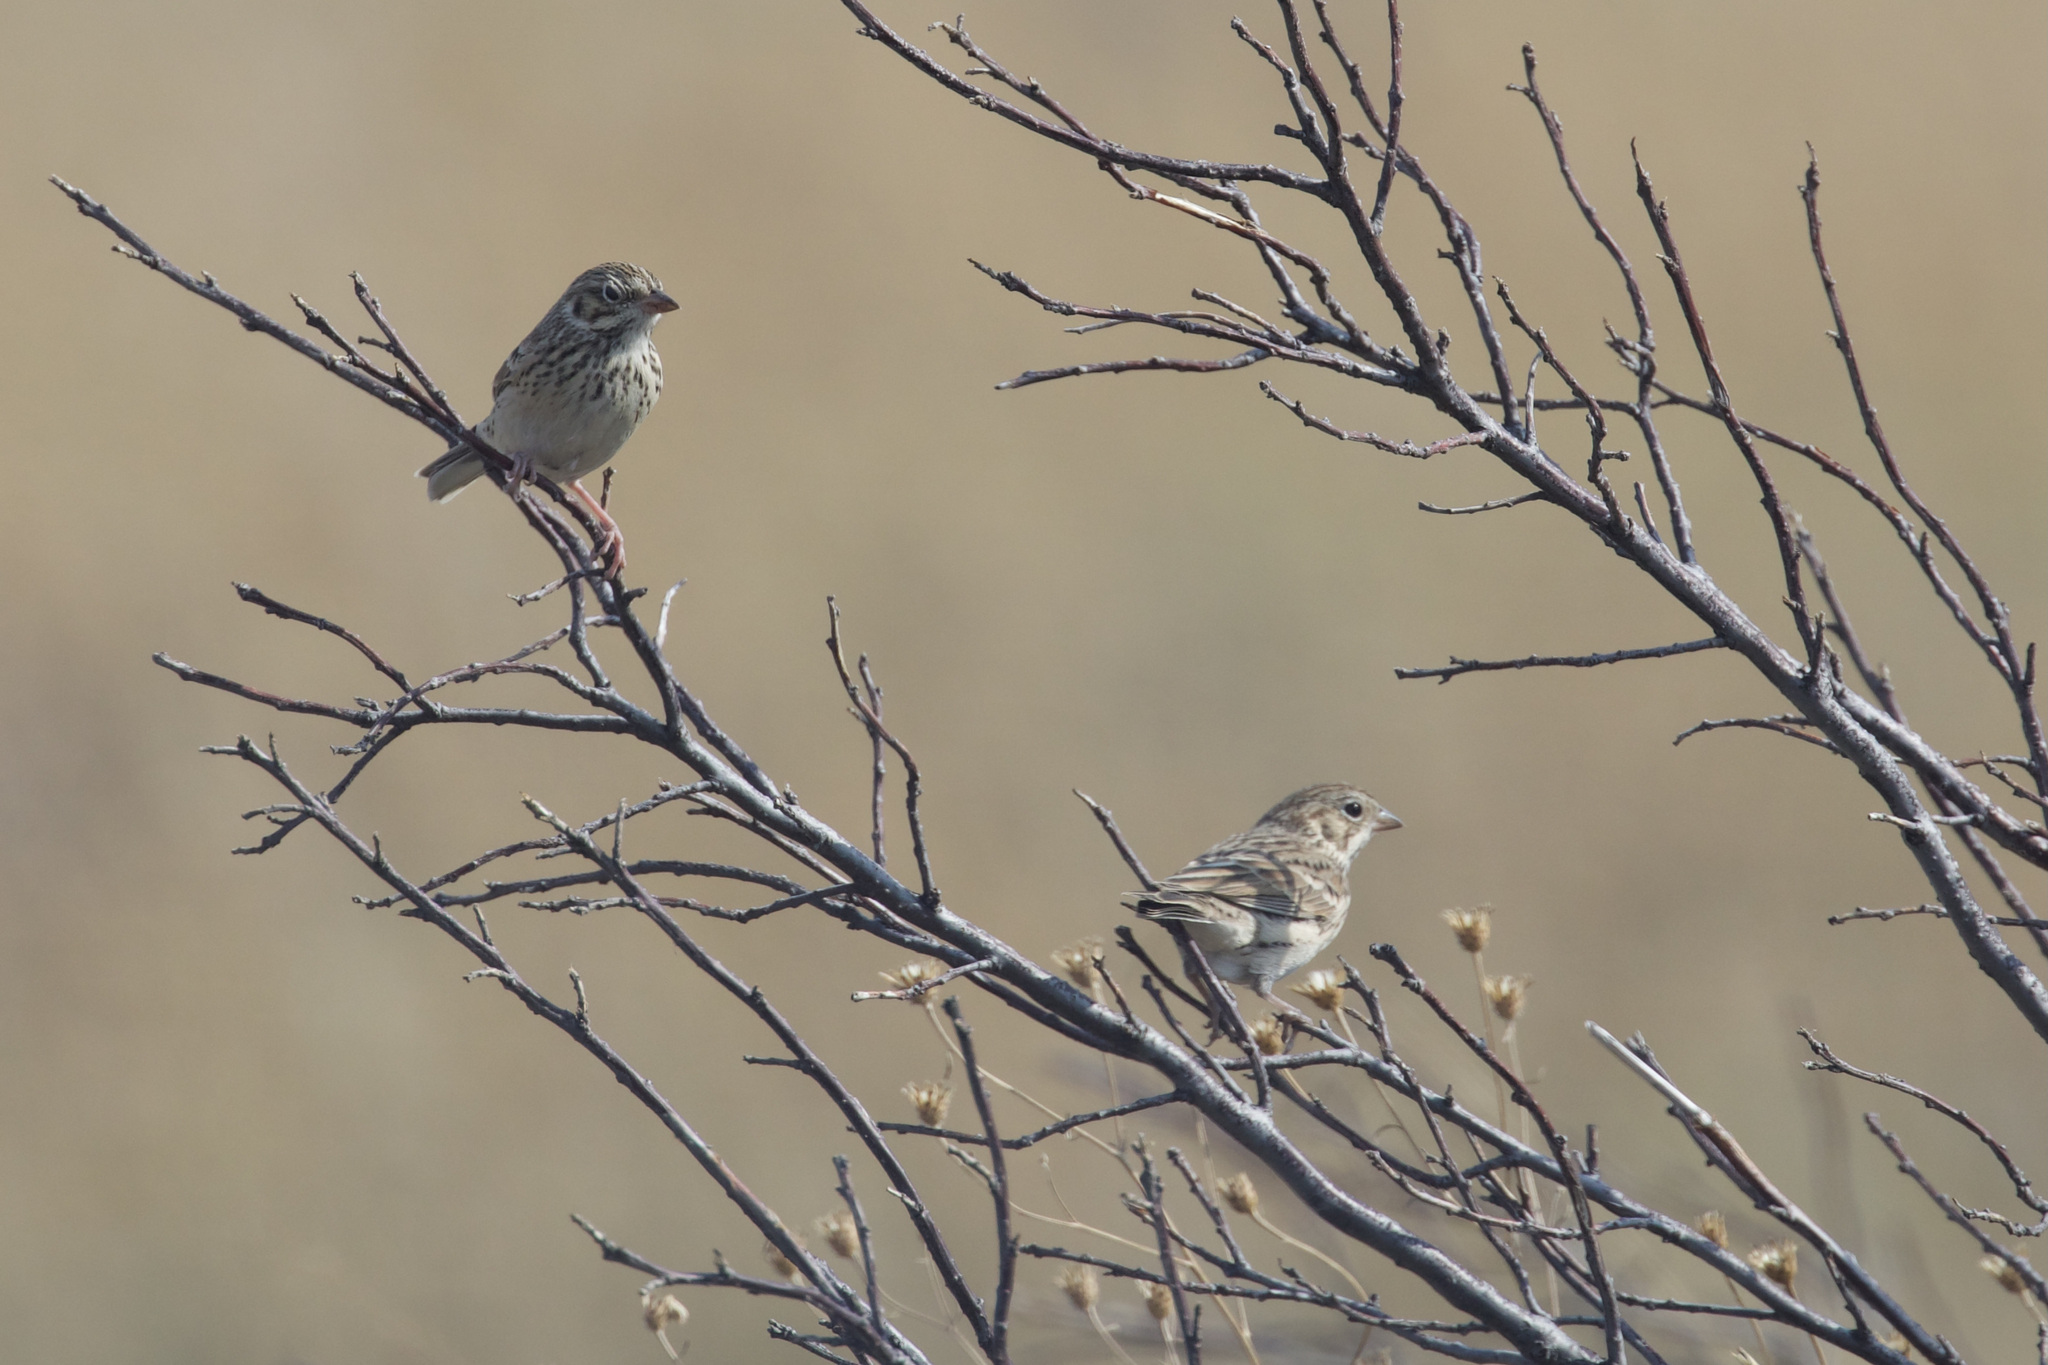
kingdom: Animalia
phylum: Chordata
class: Aves
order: Passeriformes
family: Passerellidae
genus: Pooecetes
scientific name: Pooecetes gramineus
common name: Vesper sparrow
